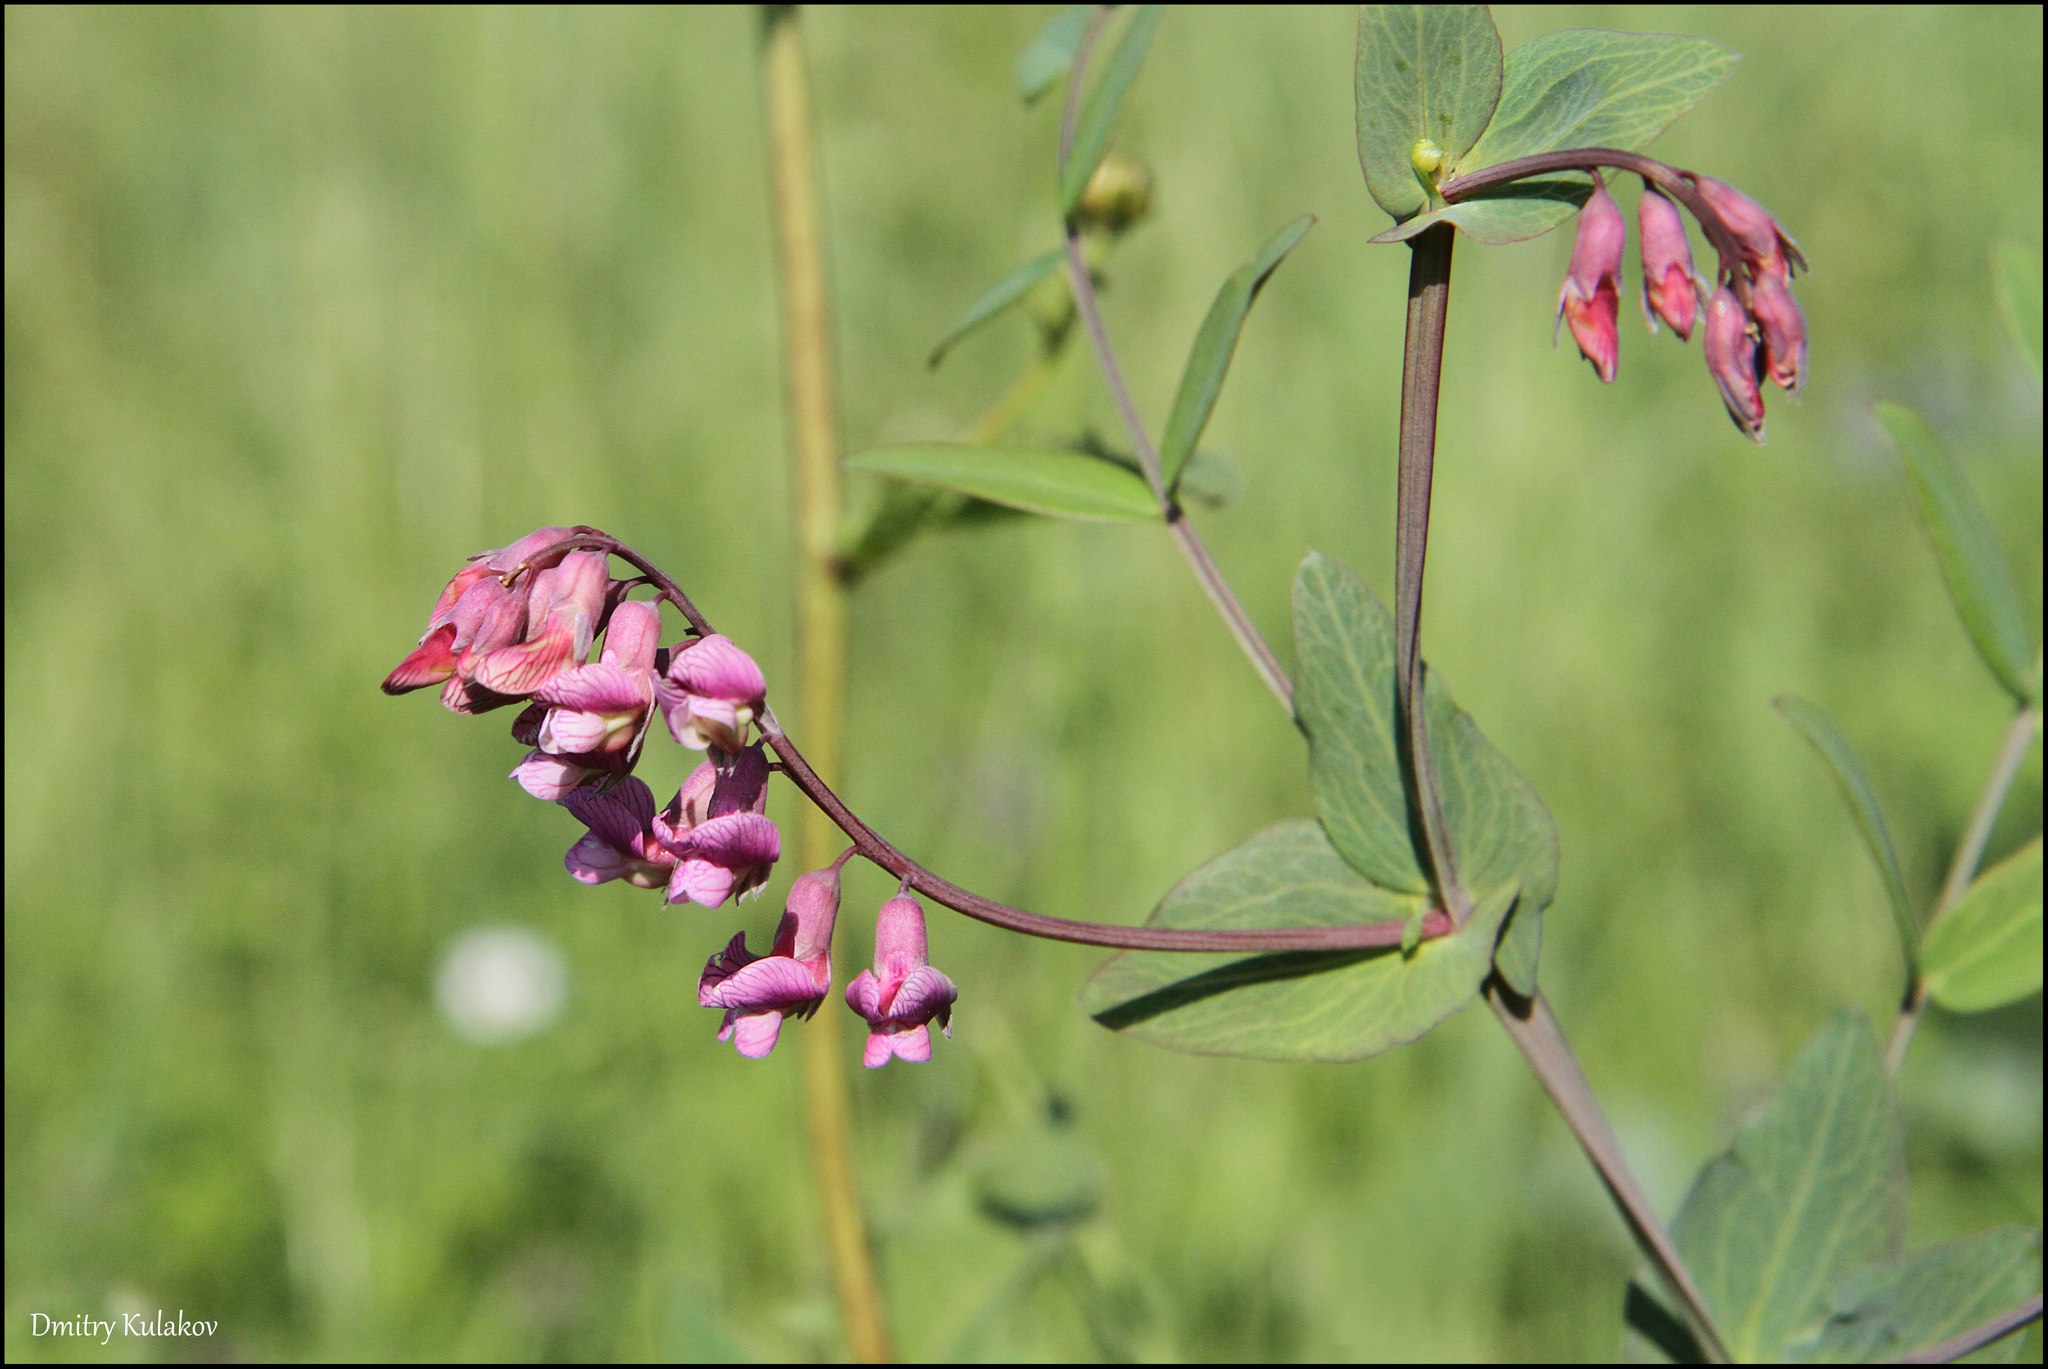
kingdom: Plantae
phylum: Tracheophyta
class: Magnoliopsida
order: Fabales
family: Fabaceae
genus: Lathyrus
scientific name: Lathyrus pisiformis
